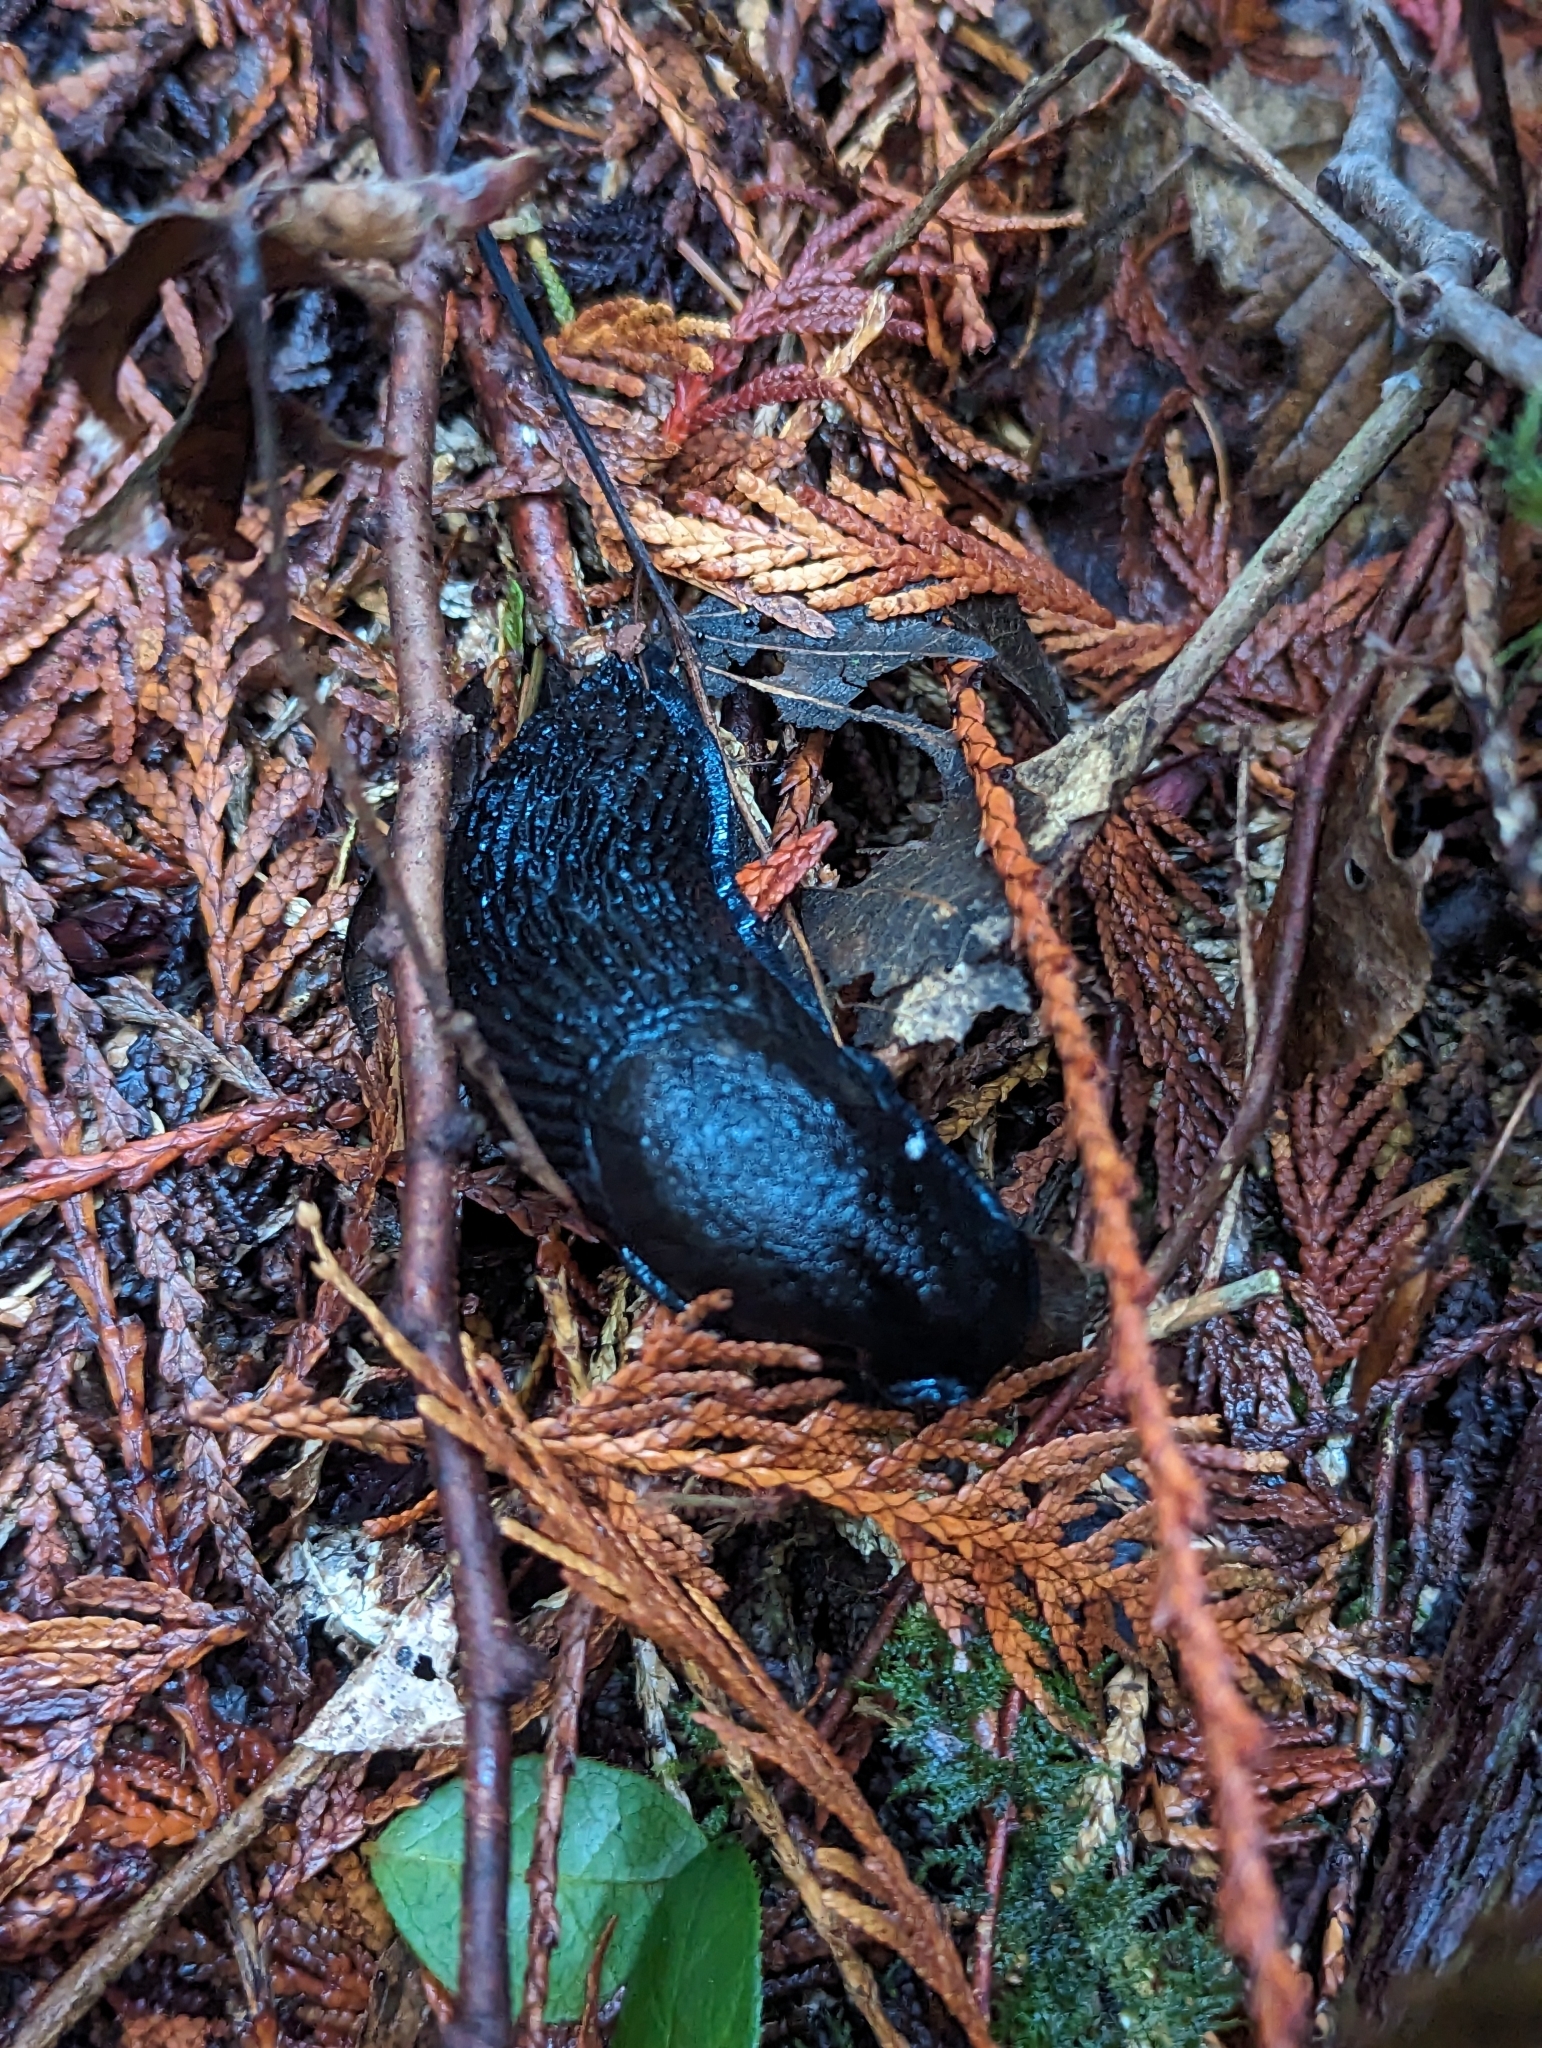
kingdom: Animalia
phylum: Mollusca
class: Gastropoda
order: Stylommatophora
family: Arionidae
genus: Arion
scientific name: Arion ater
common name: Black arion
